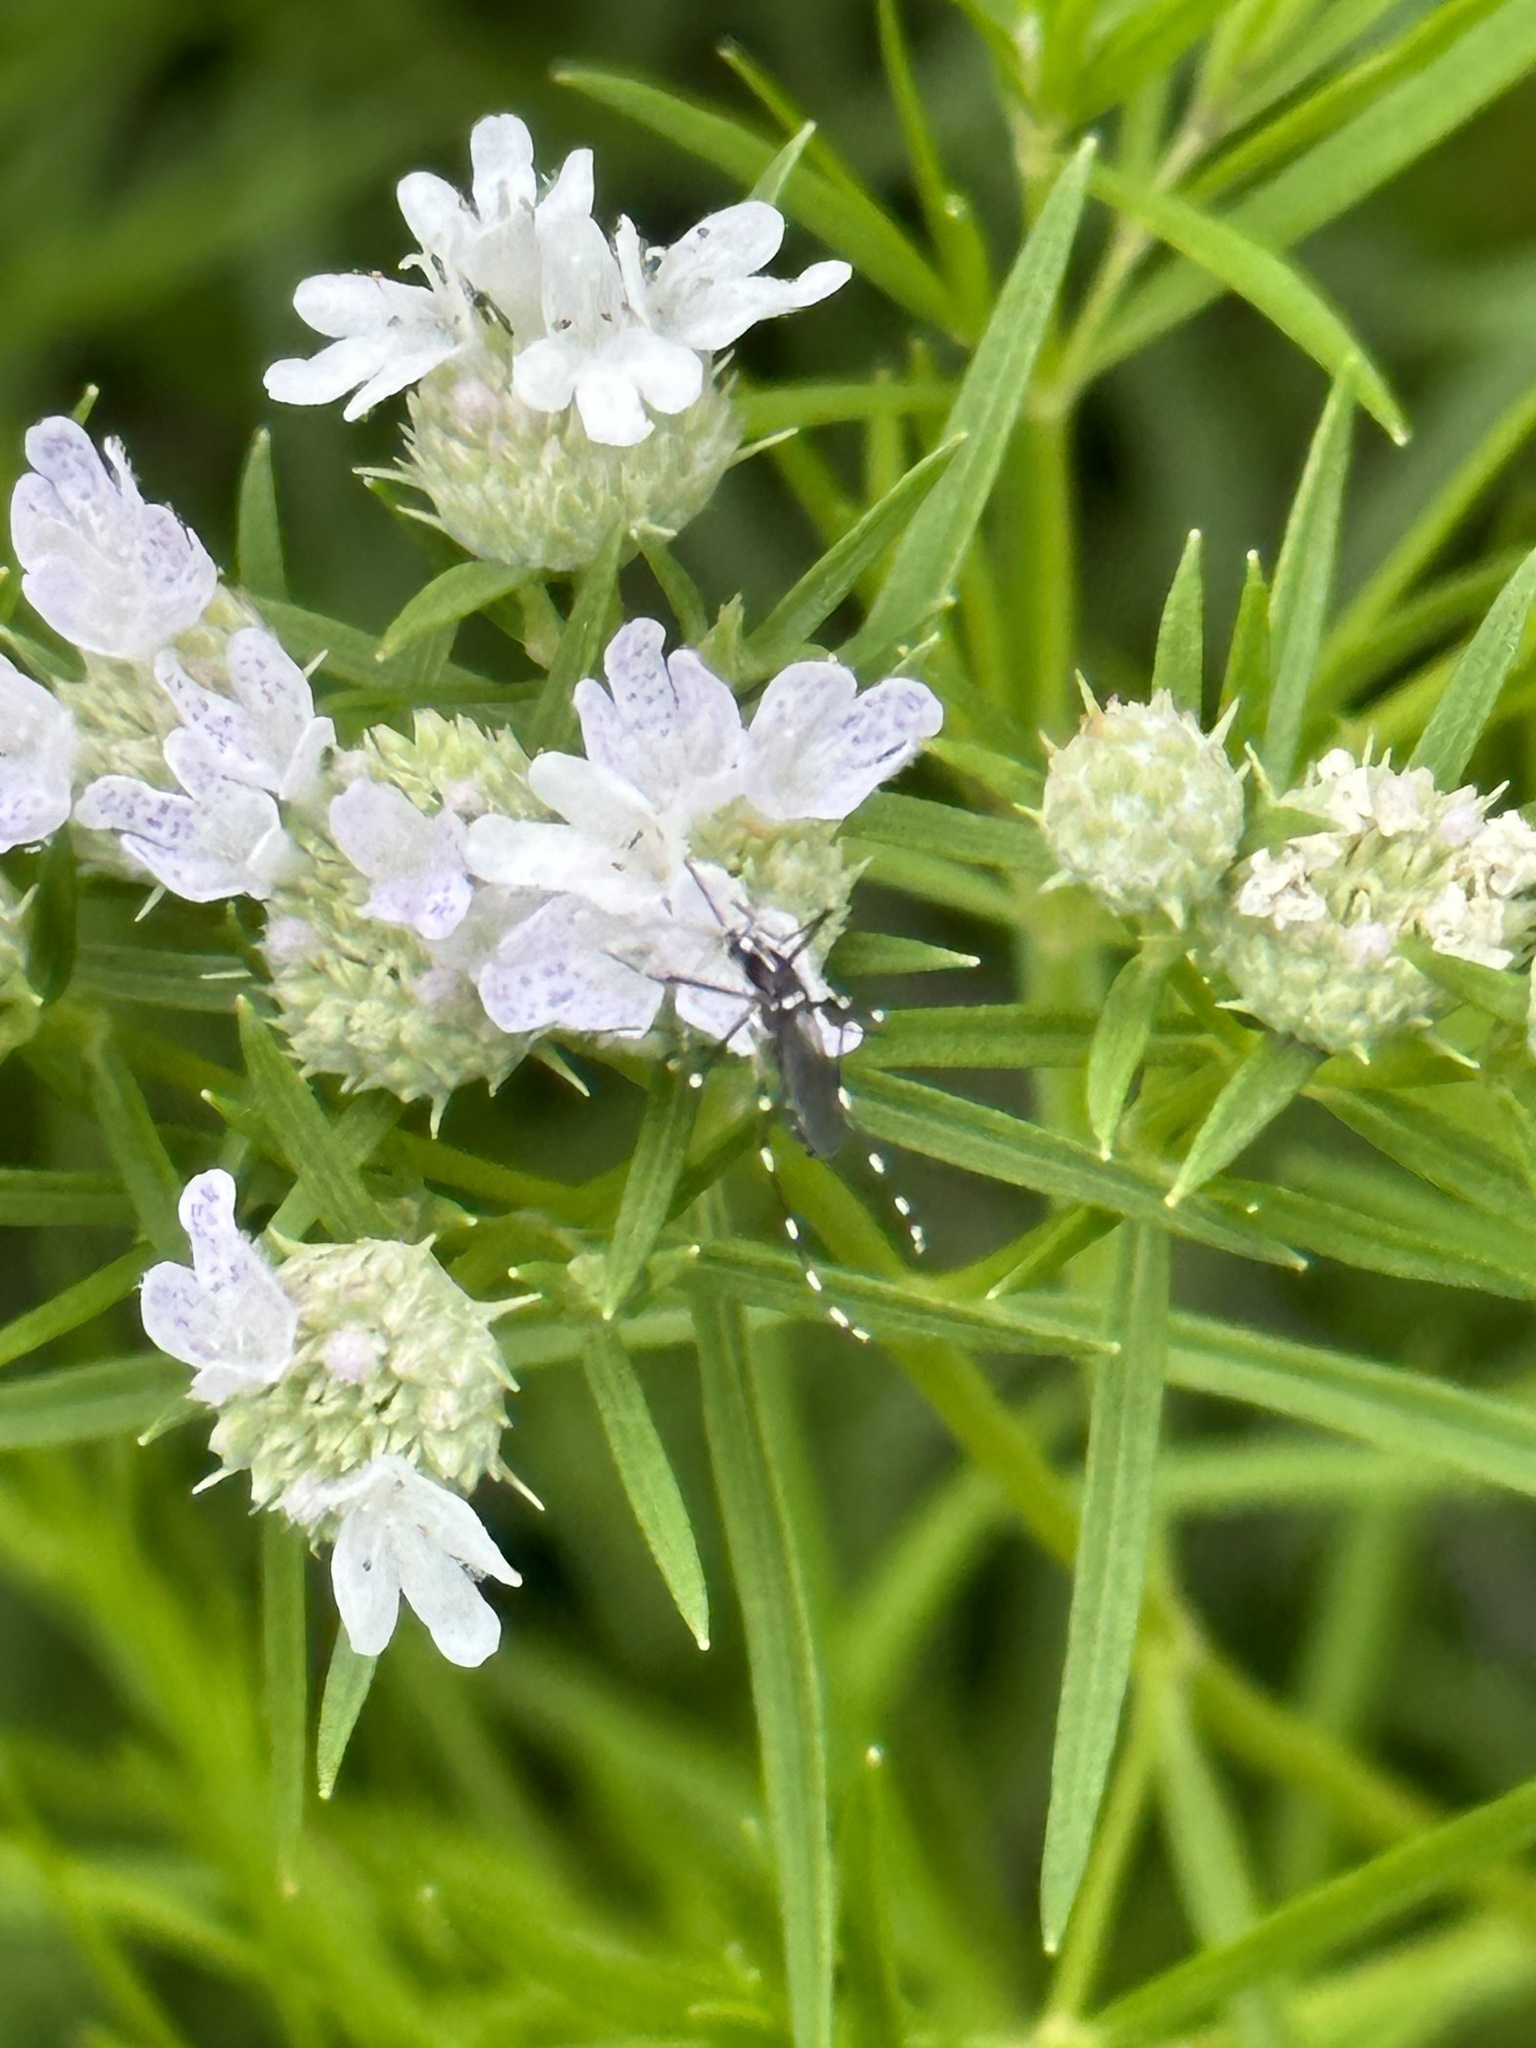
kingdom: Animalia
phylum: Arthropoda
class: Insecta
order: Diptera
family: Culicidae
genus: Aedes
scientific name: Aedes albopictus
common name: Tiger mosquito
